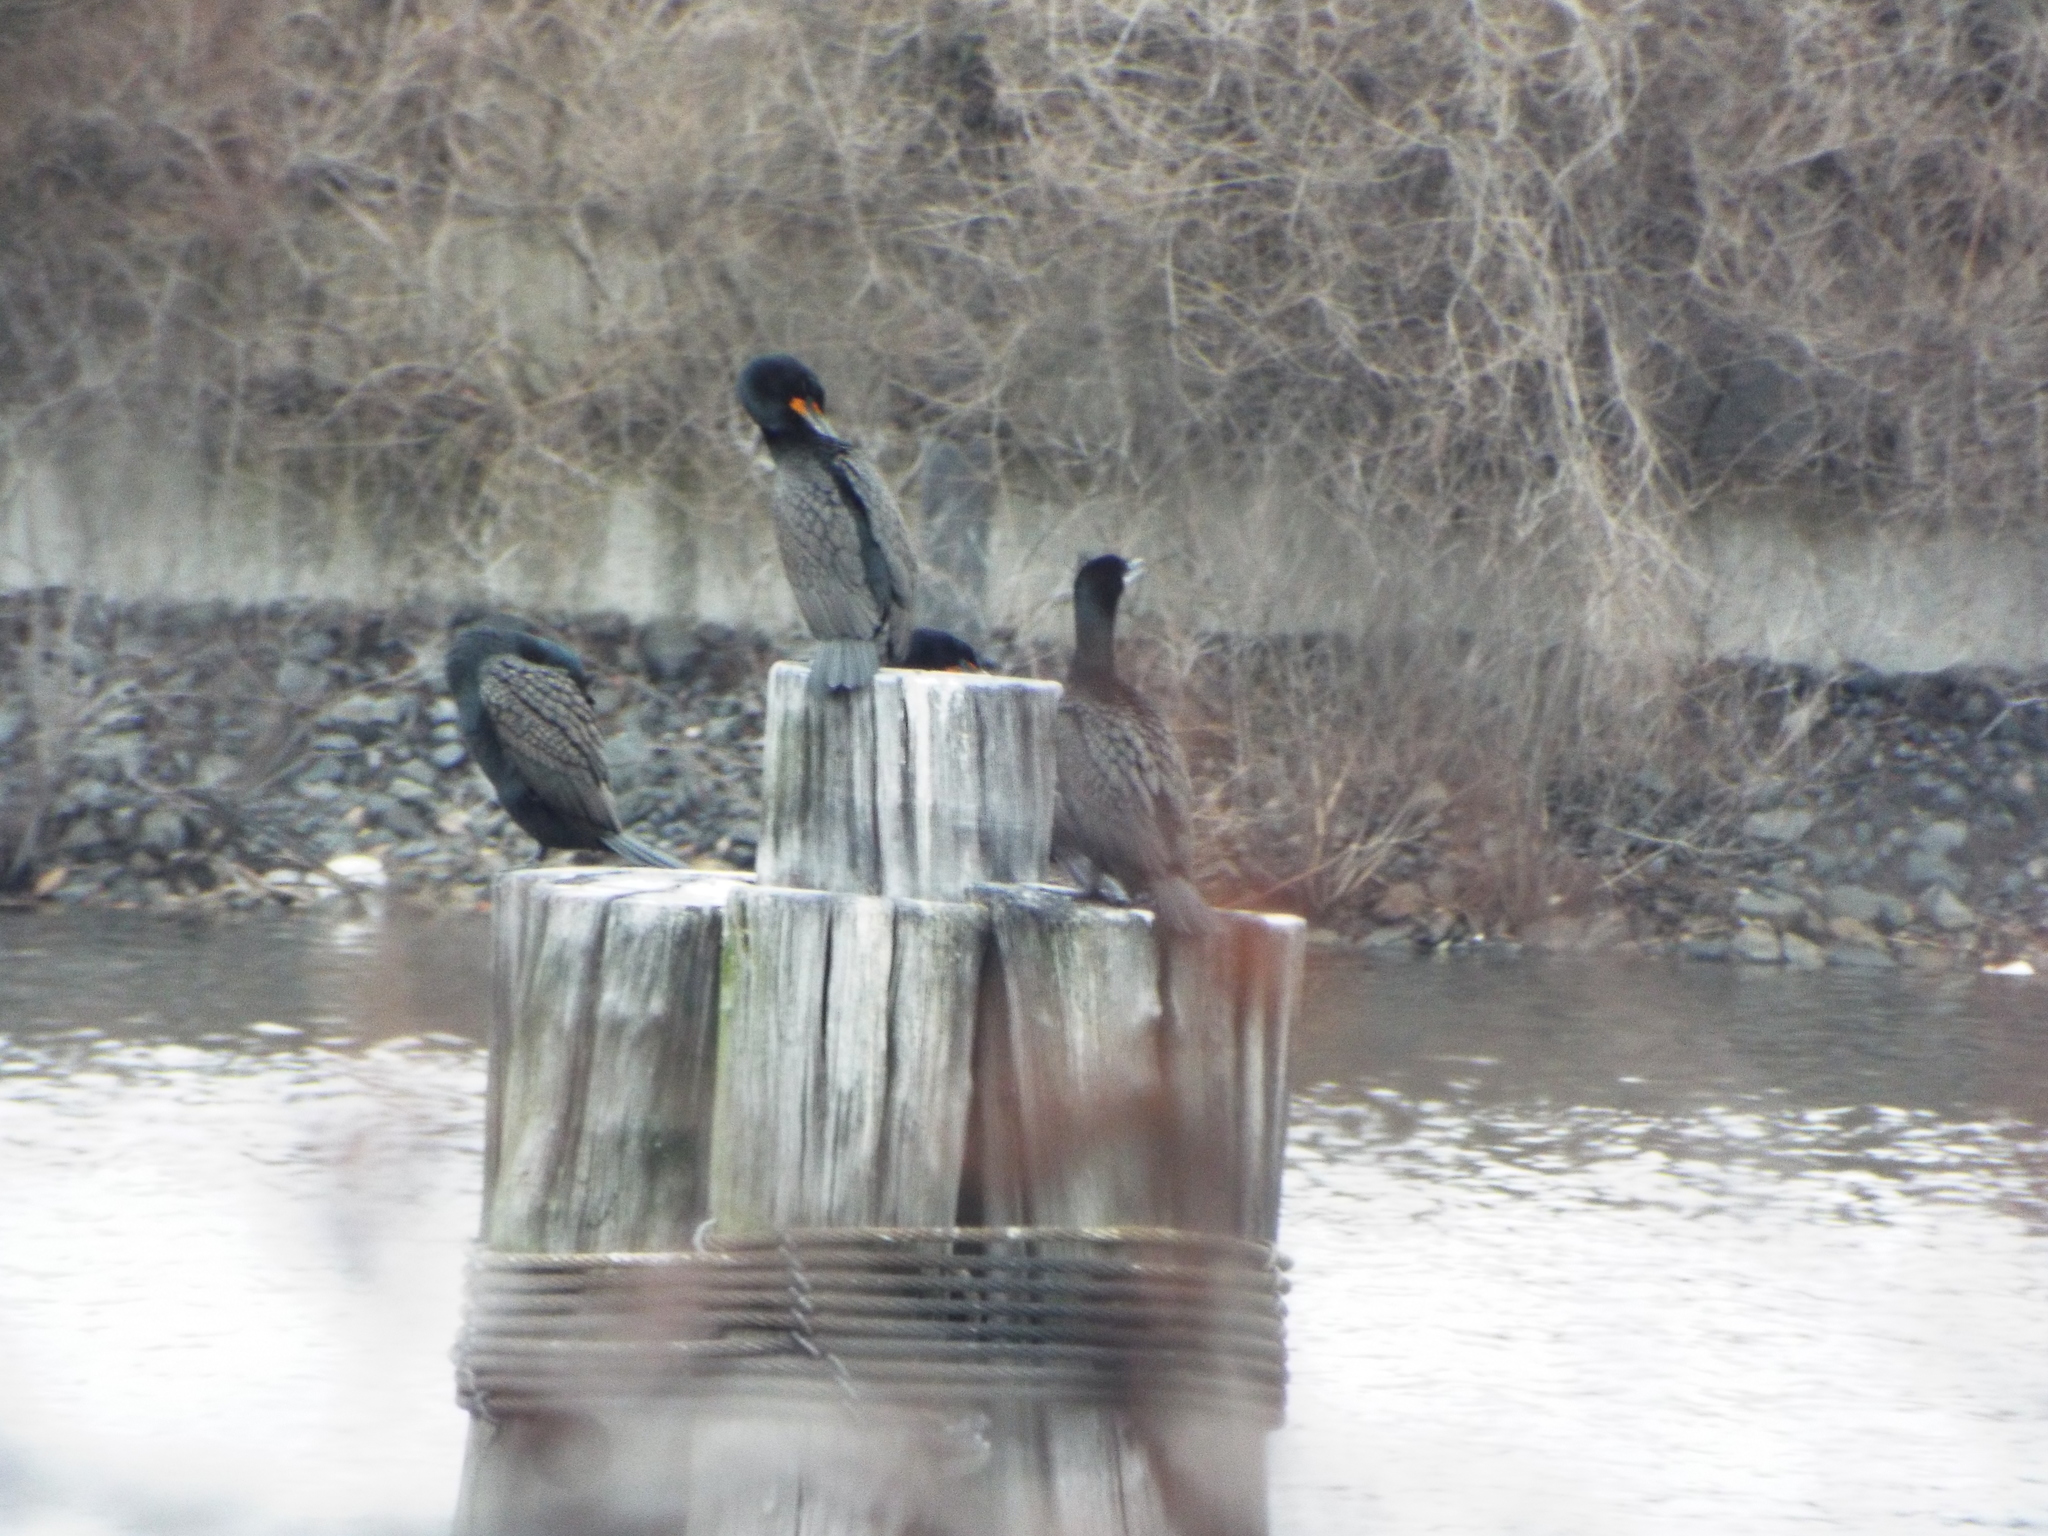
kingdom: Animalia
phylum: Chordata
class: Aves
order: Suliformes
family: Phalacrocoracidae
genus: Phalacrocorax
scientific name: Phalacrocorax auritus
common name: Double-crested cormorant
